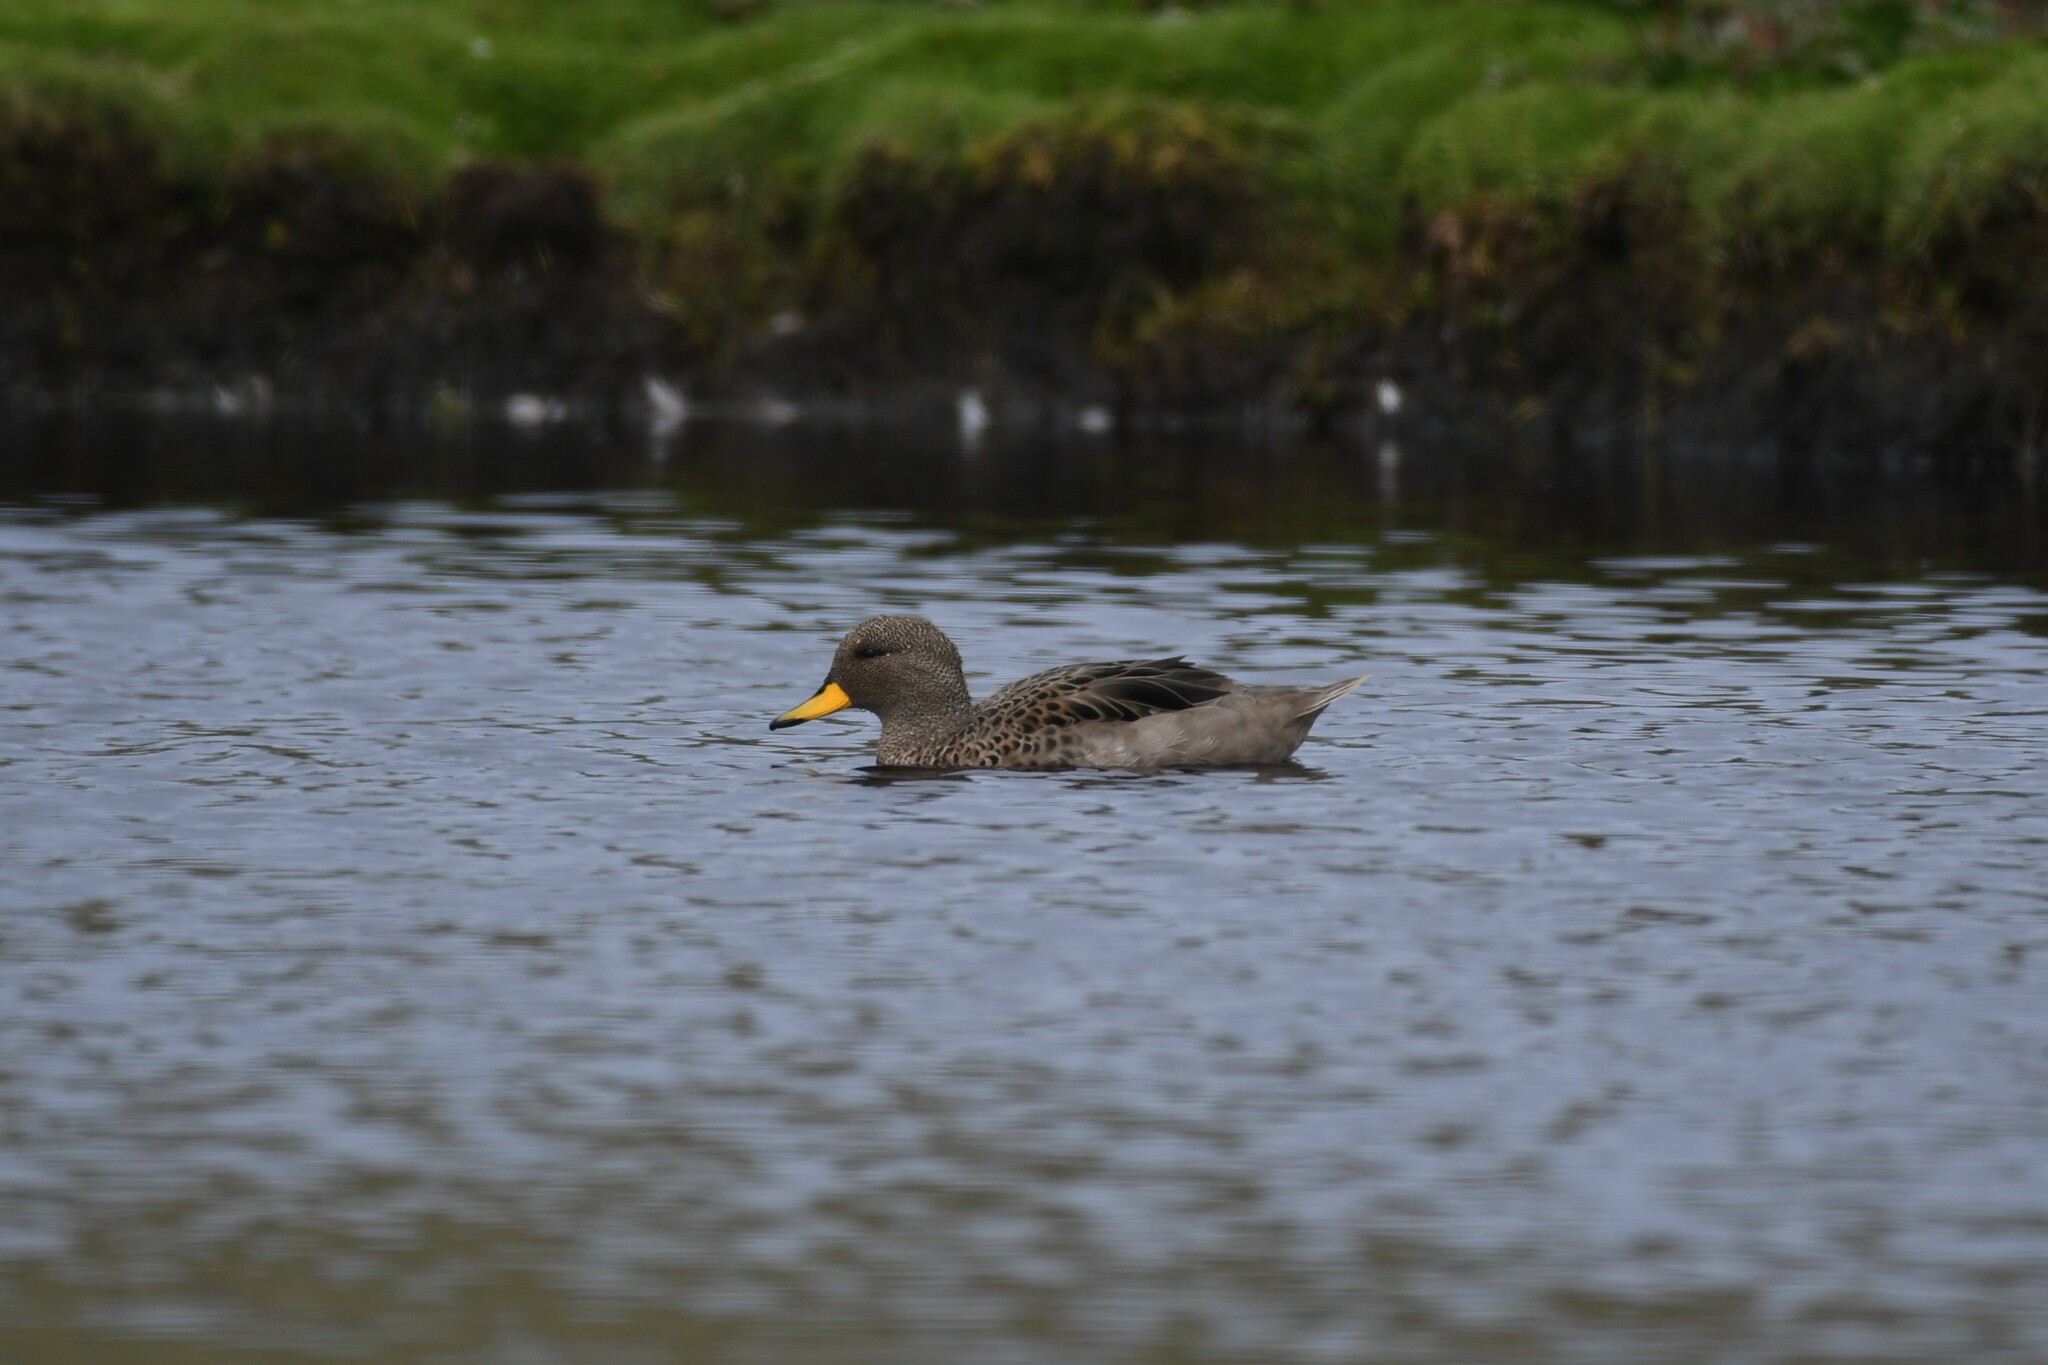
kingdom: Animalia
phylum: Chordata
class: Aves
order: Anseriformes
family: Anatidae
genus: Anas
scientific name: Anas flavirostris
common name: Yellow-billed teal
